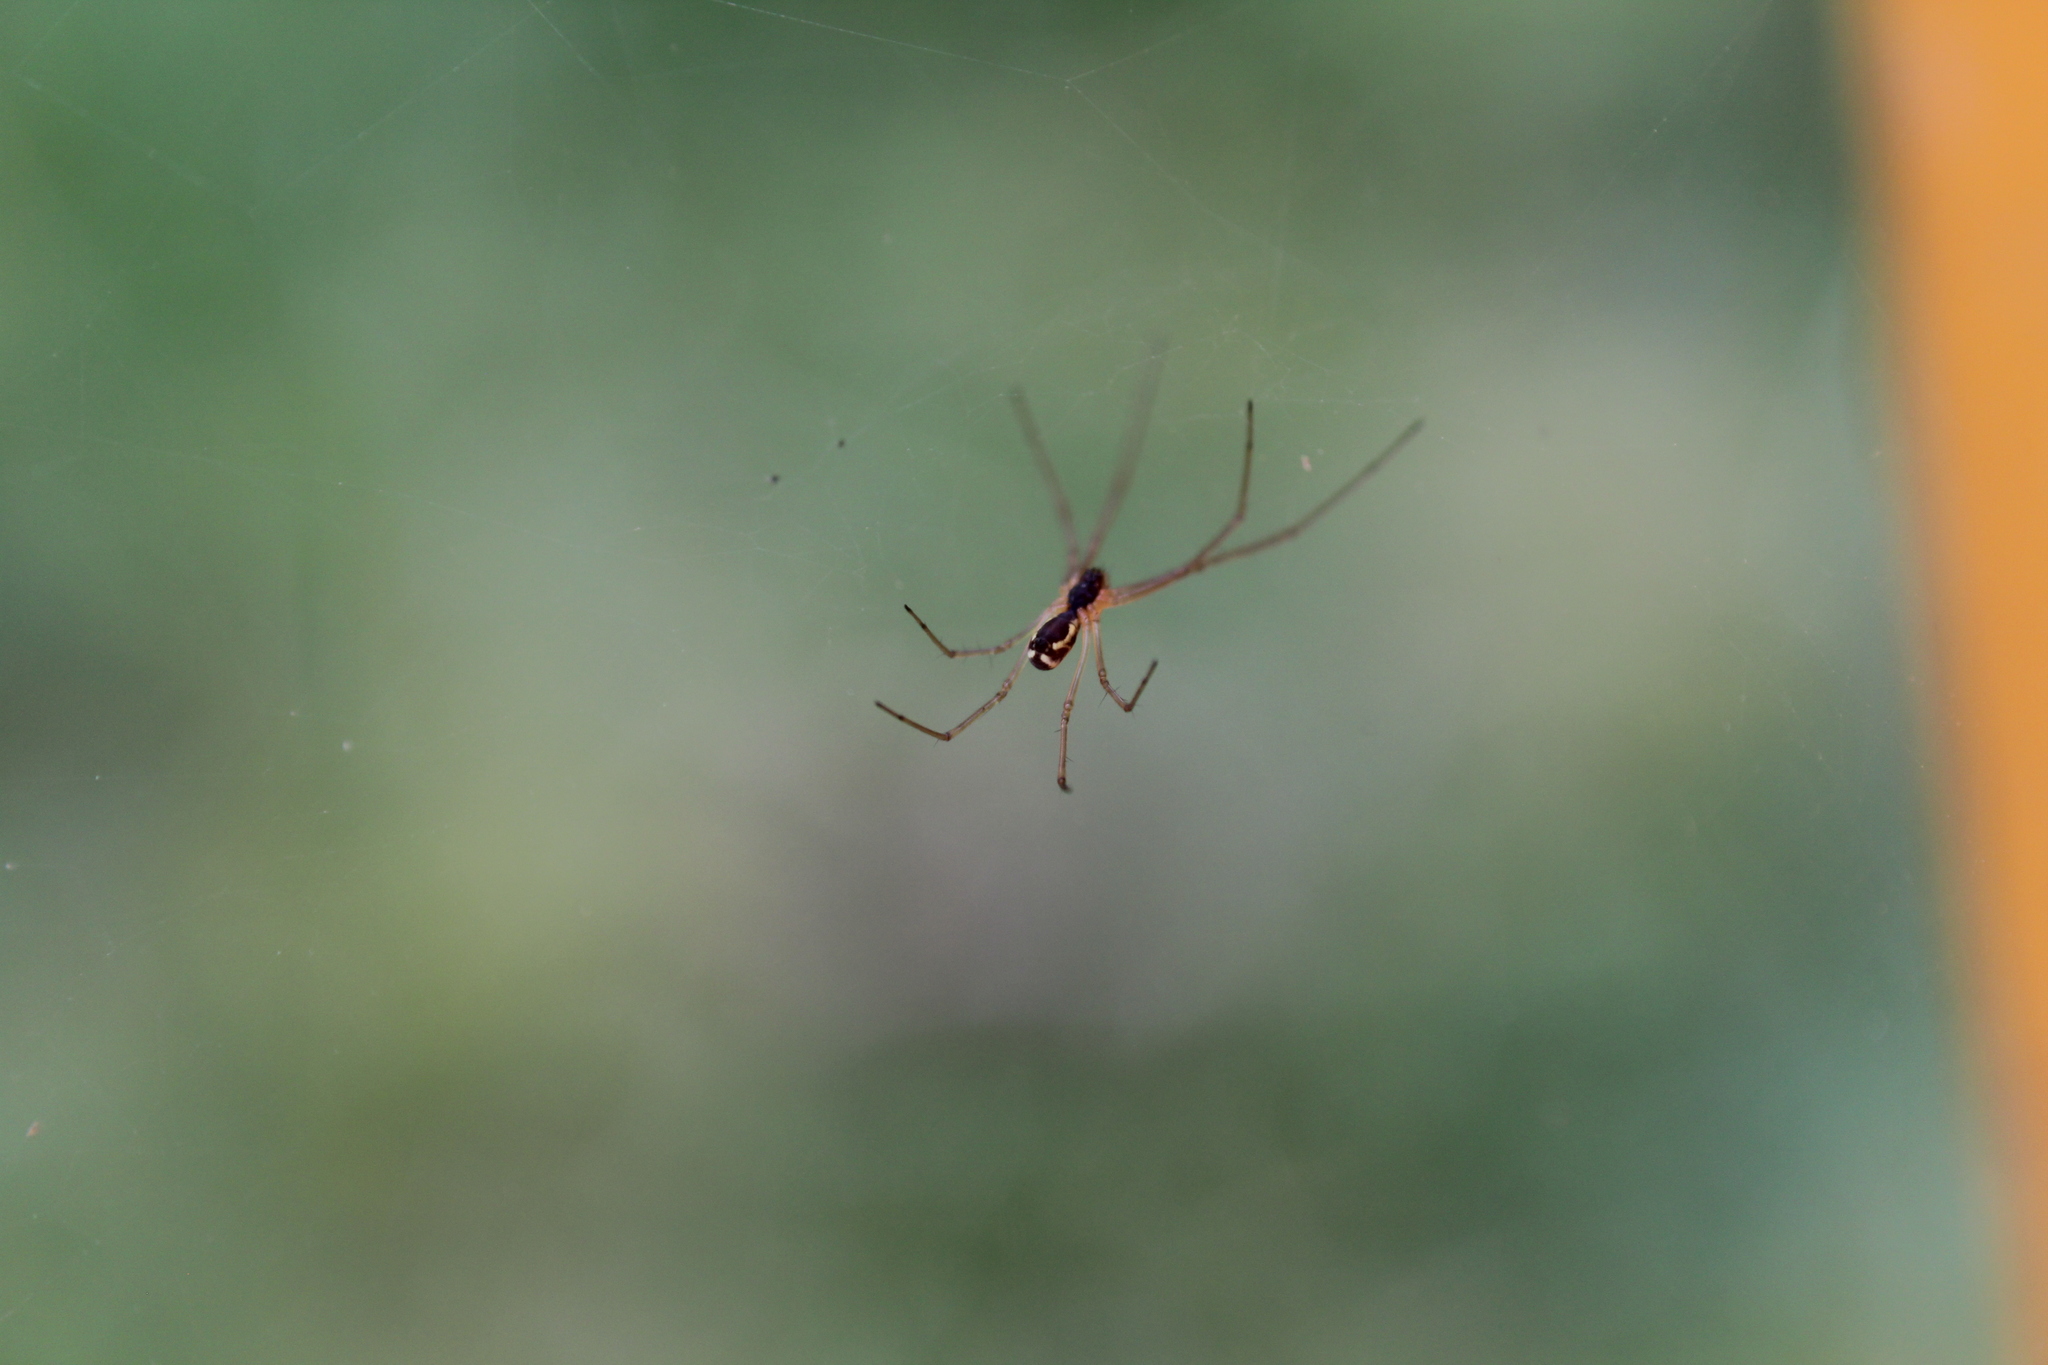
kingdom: Animalia
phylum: Arthropoda
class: Arachnida
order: Araneae
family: Linyphiidae
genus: Neriene
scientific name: Neriene radiata
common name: Filmy dome spider
